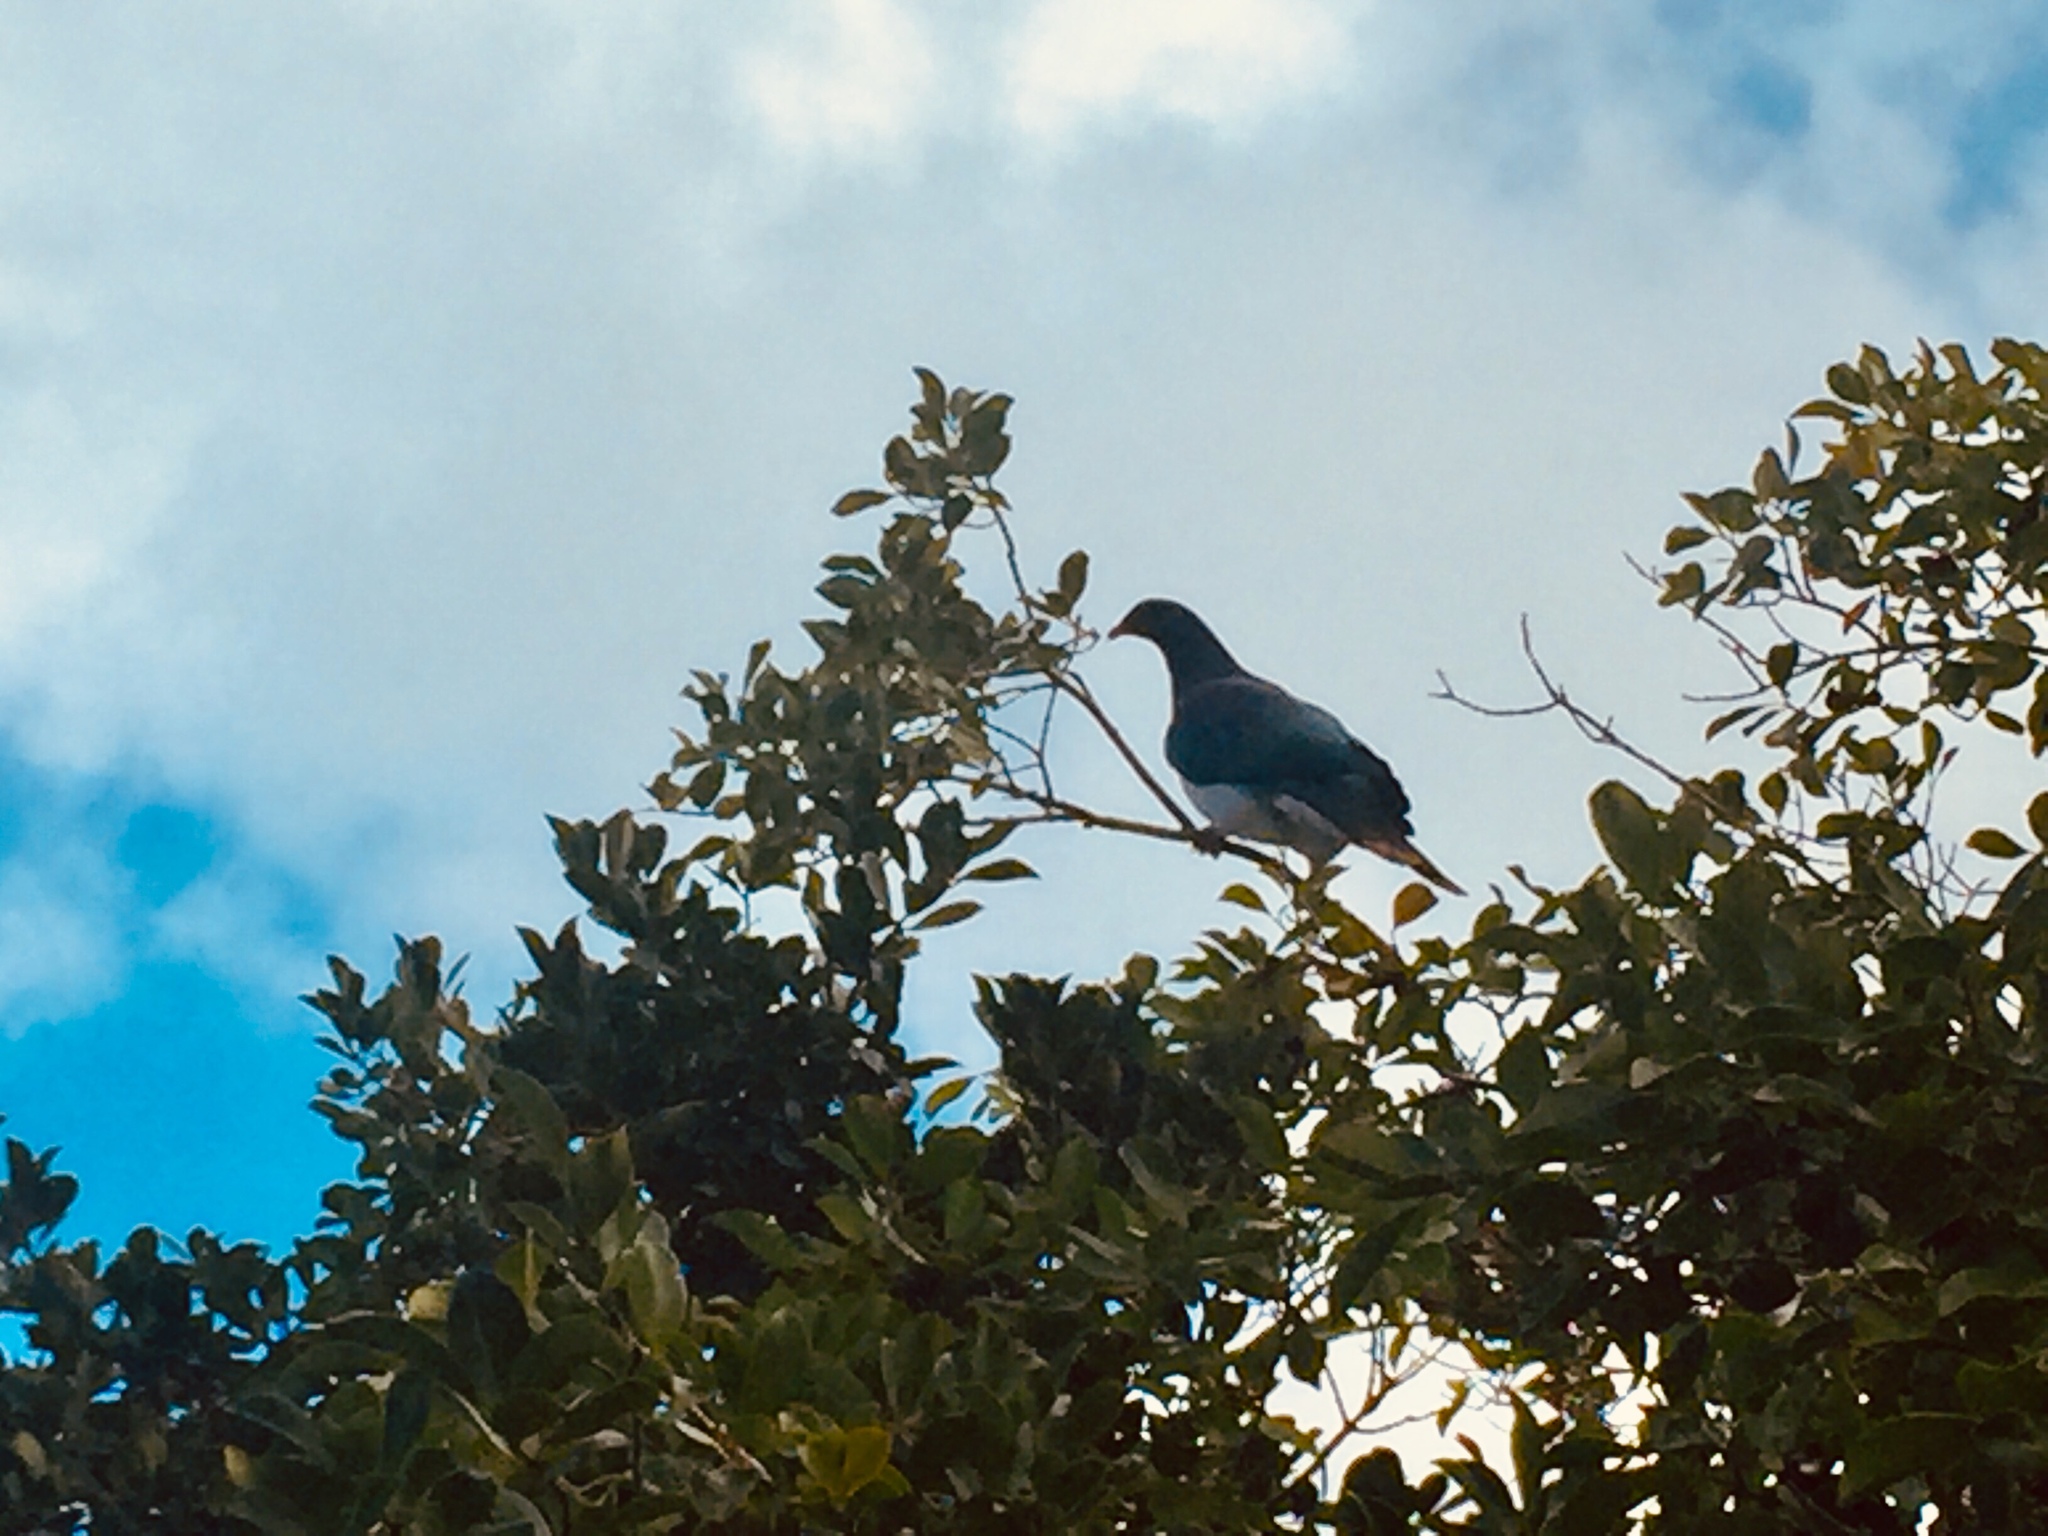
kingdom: Animalia
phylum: Chordata
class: Aves
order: Columbiformes
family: Columbidae
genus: Hemiphaga
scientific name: Hemiphaga novaeseelandiae
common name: New zealand pigeon
